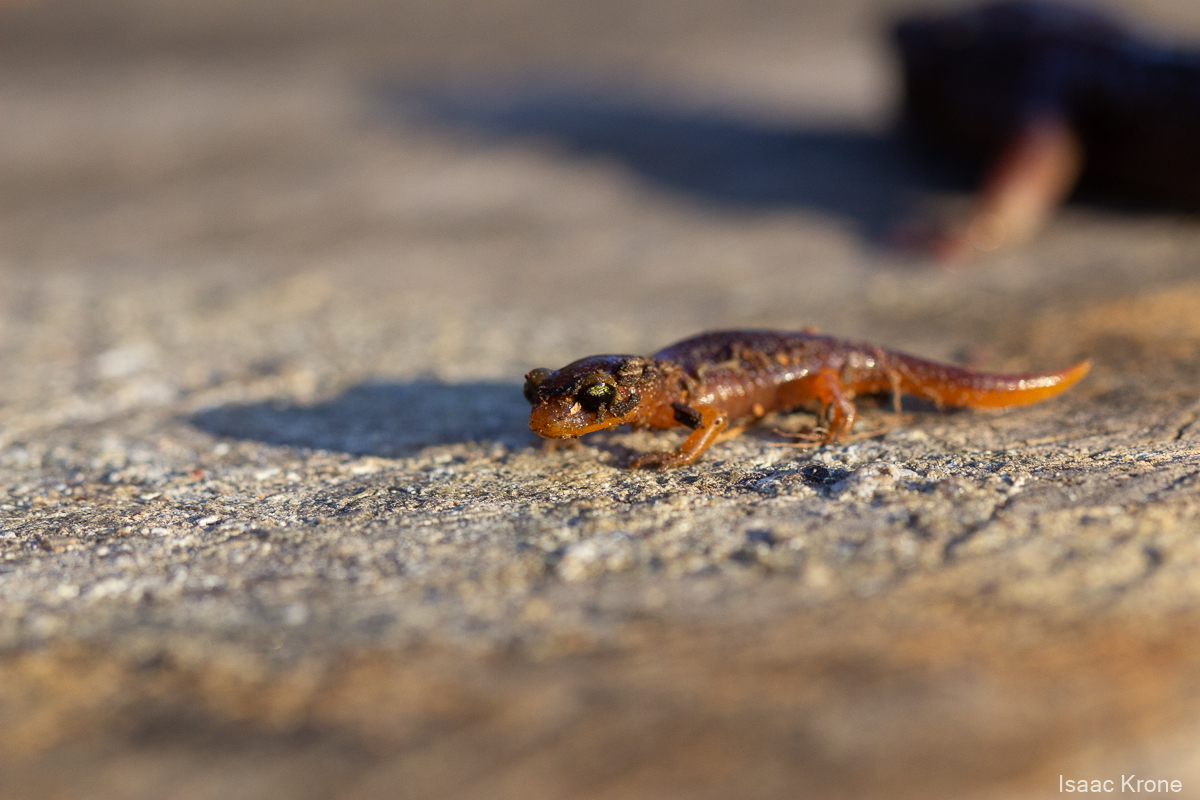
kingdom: Animalia
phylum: Chordata
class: Amphibia
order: Caudata
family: Plethodontidae
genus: Ensatina
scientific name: Ensatina eschscholtzii
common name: Ensatina
